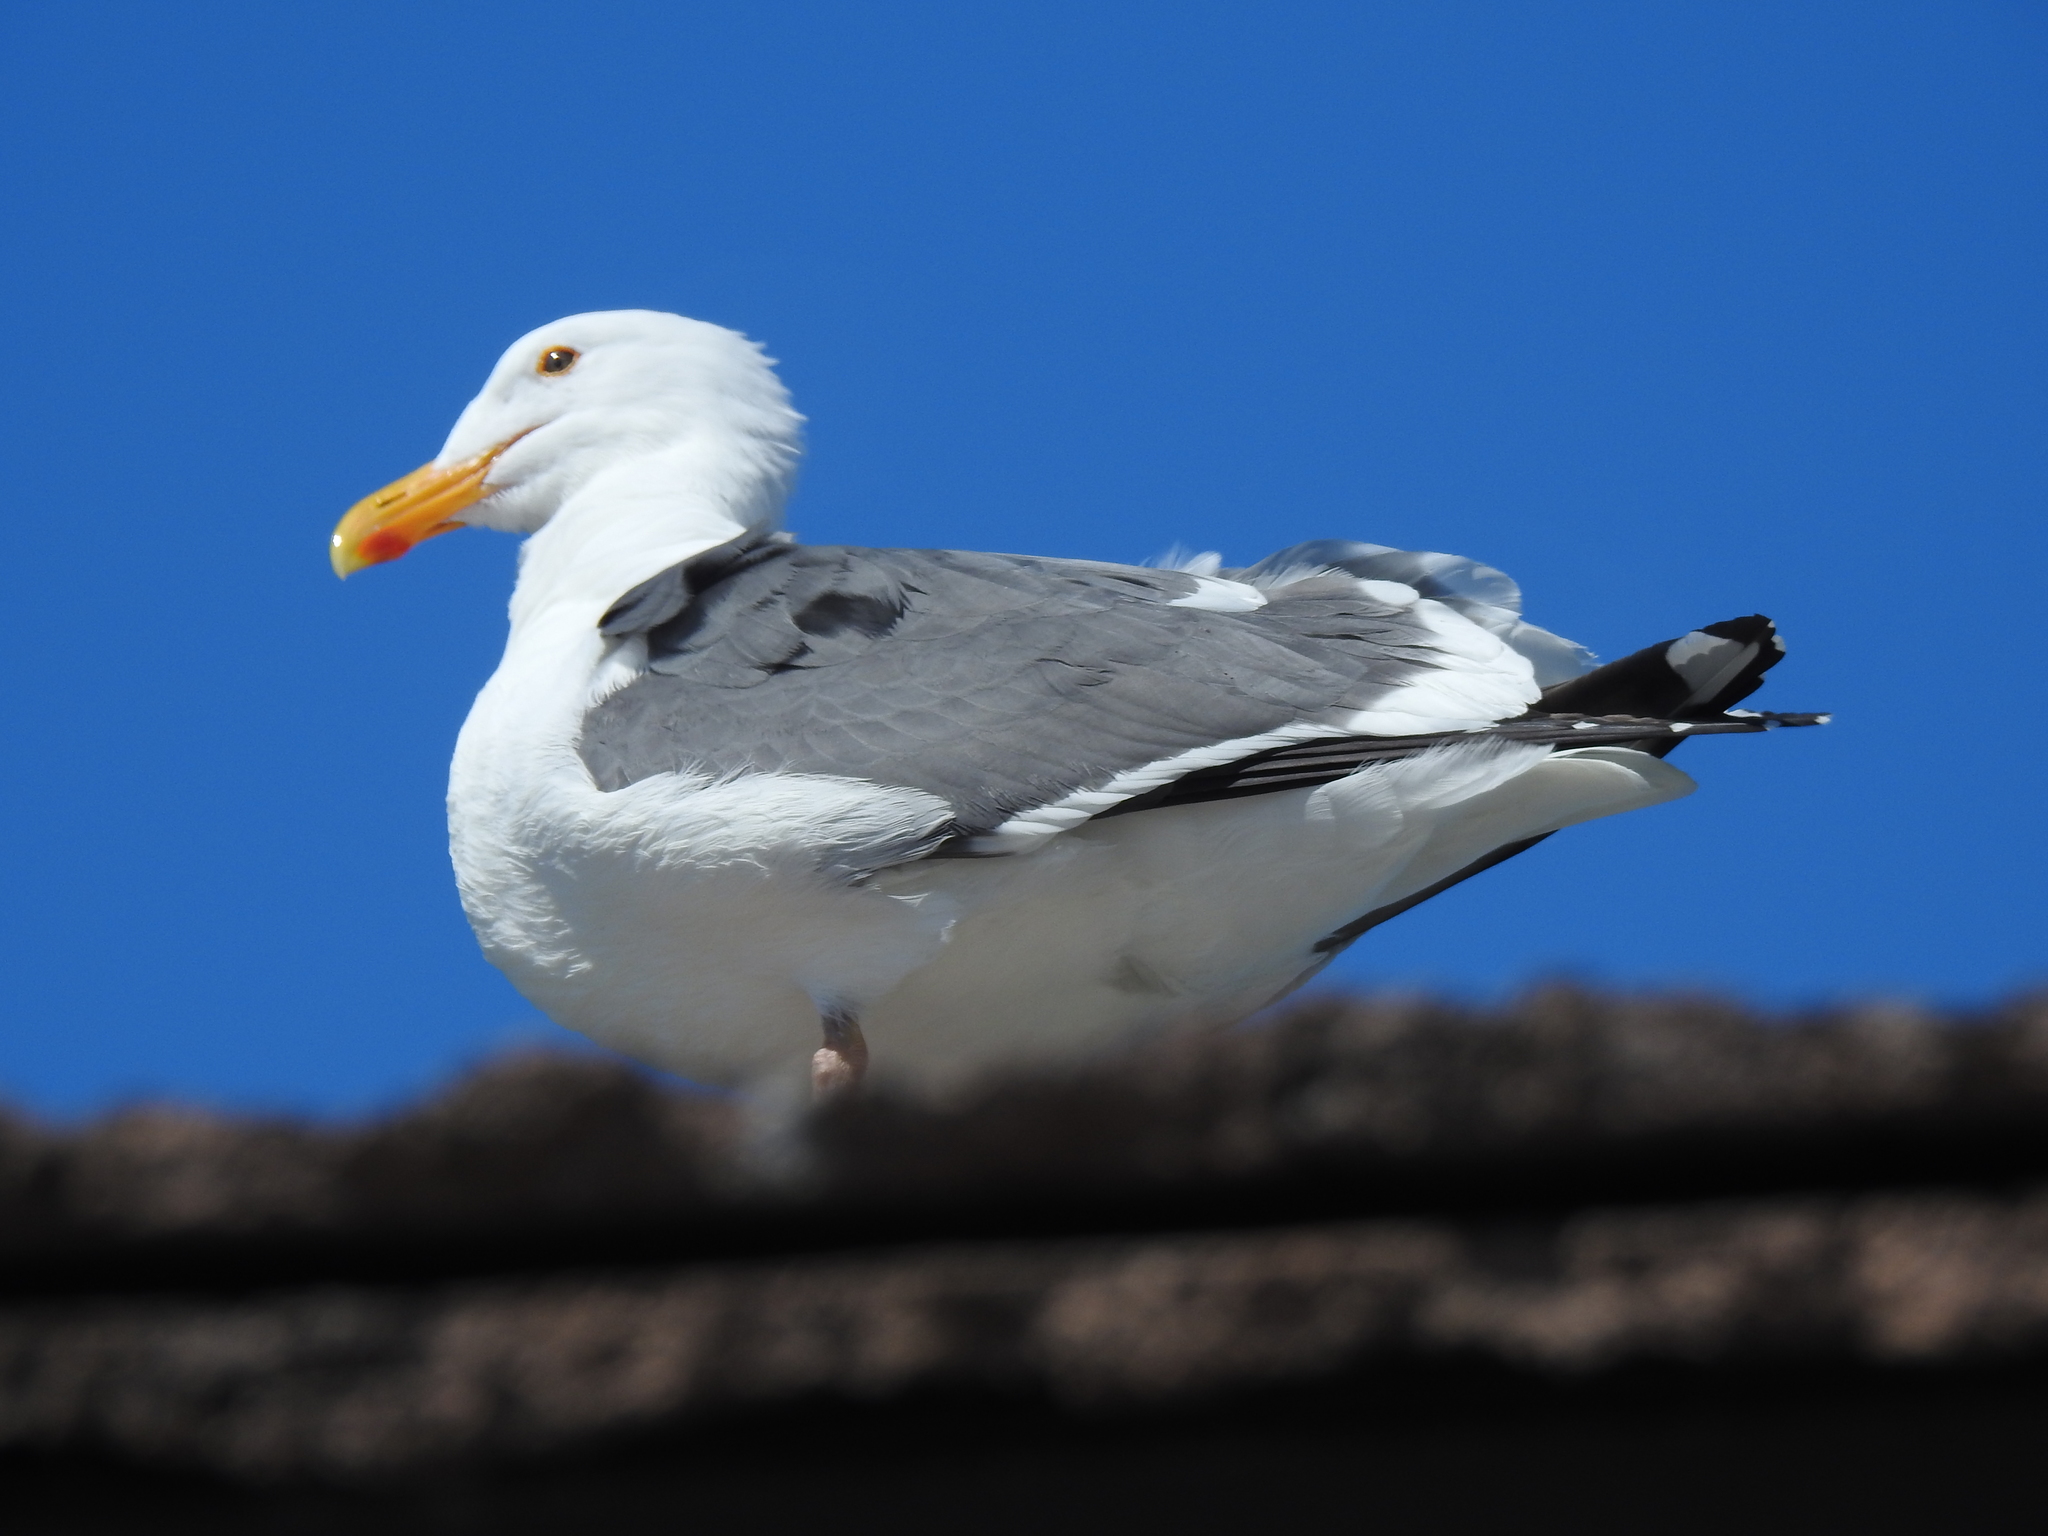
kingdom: Animalia
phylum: Chordata
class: Aves
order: Charadriiformes
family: Laridae
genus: Larus
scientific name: Larus occidentalis
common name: Western gull
